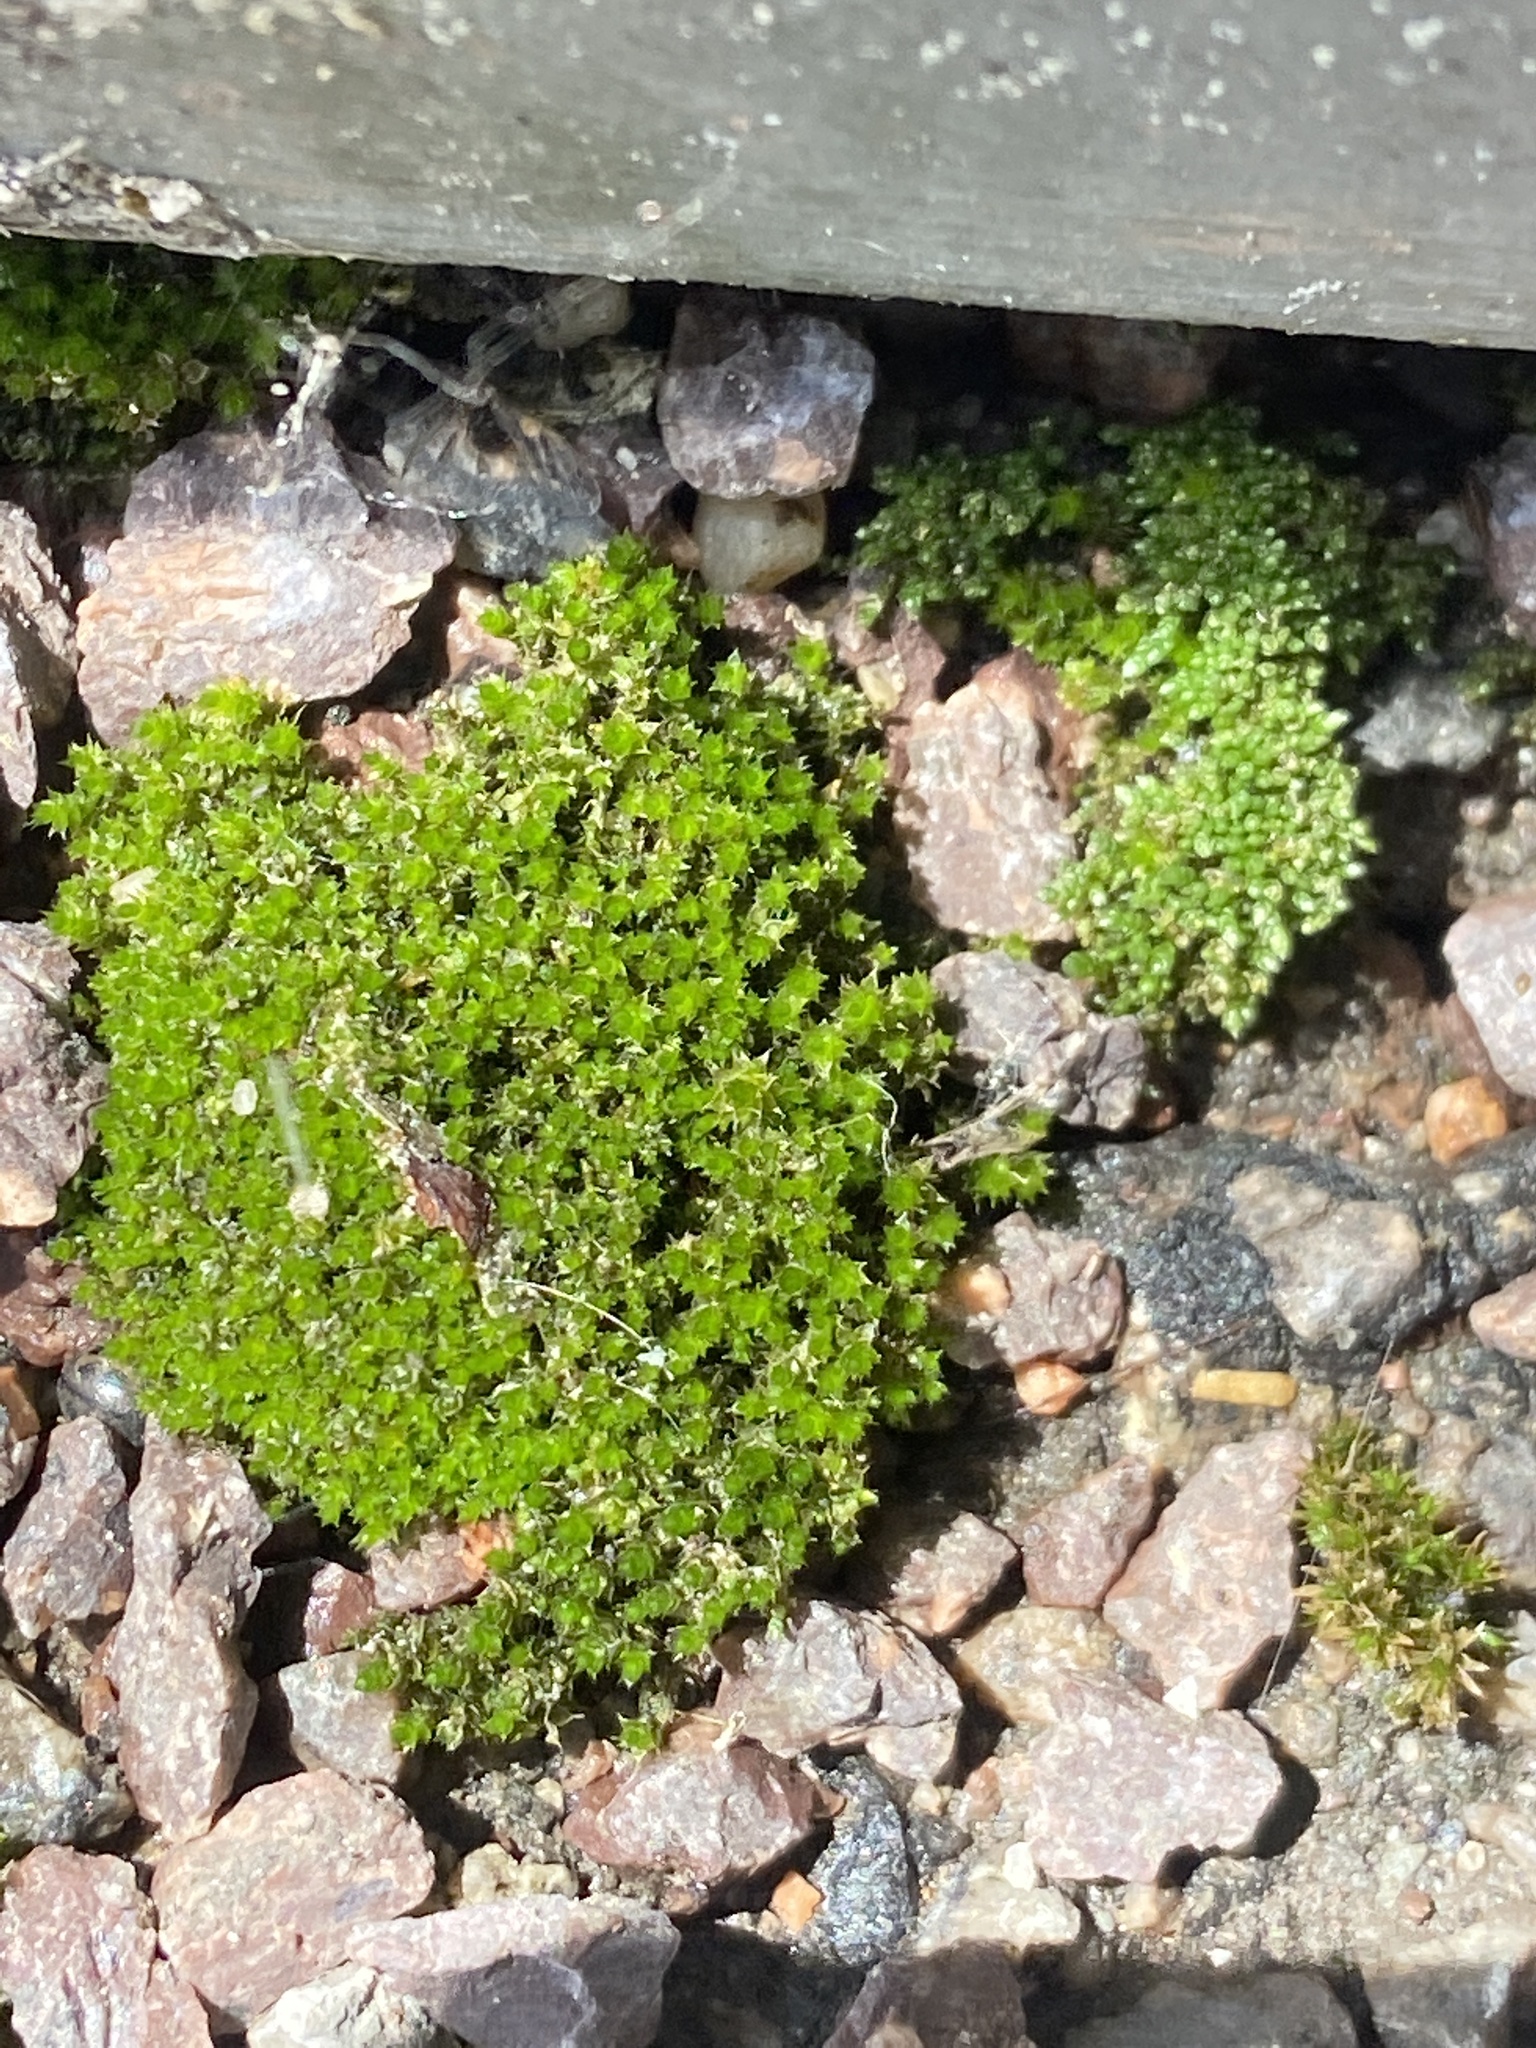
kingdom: Plantae
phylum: Bryophyta
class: Bryopsida
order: Bryales
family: Bryaceae
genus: Bryum
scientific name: Bryum argenteum
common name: Silver-moss
